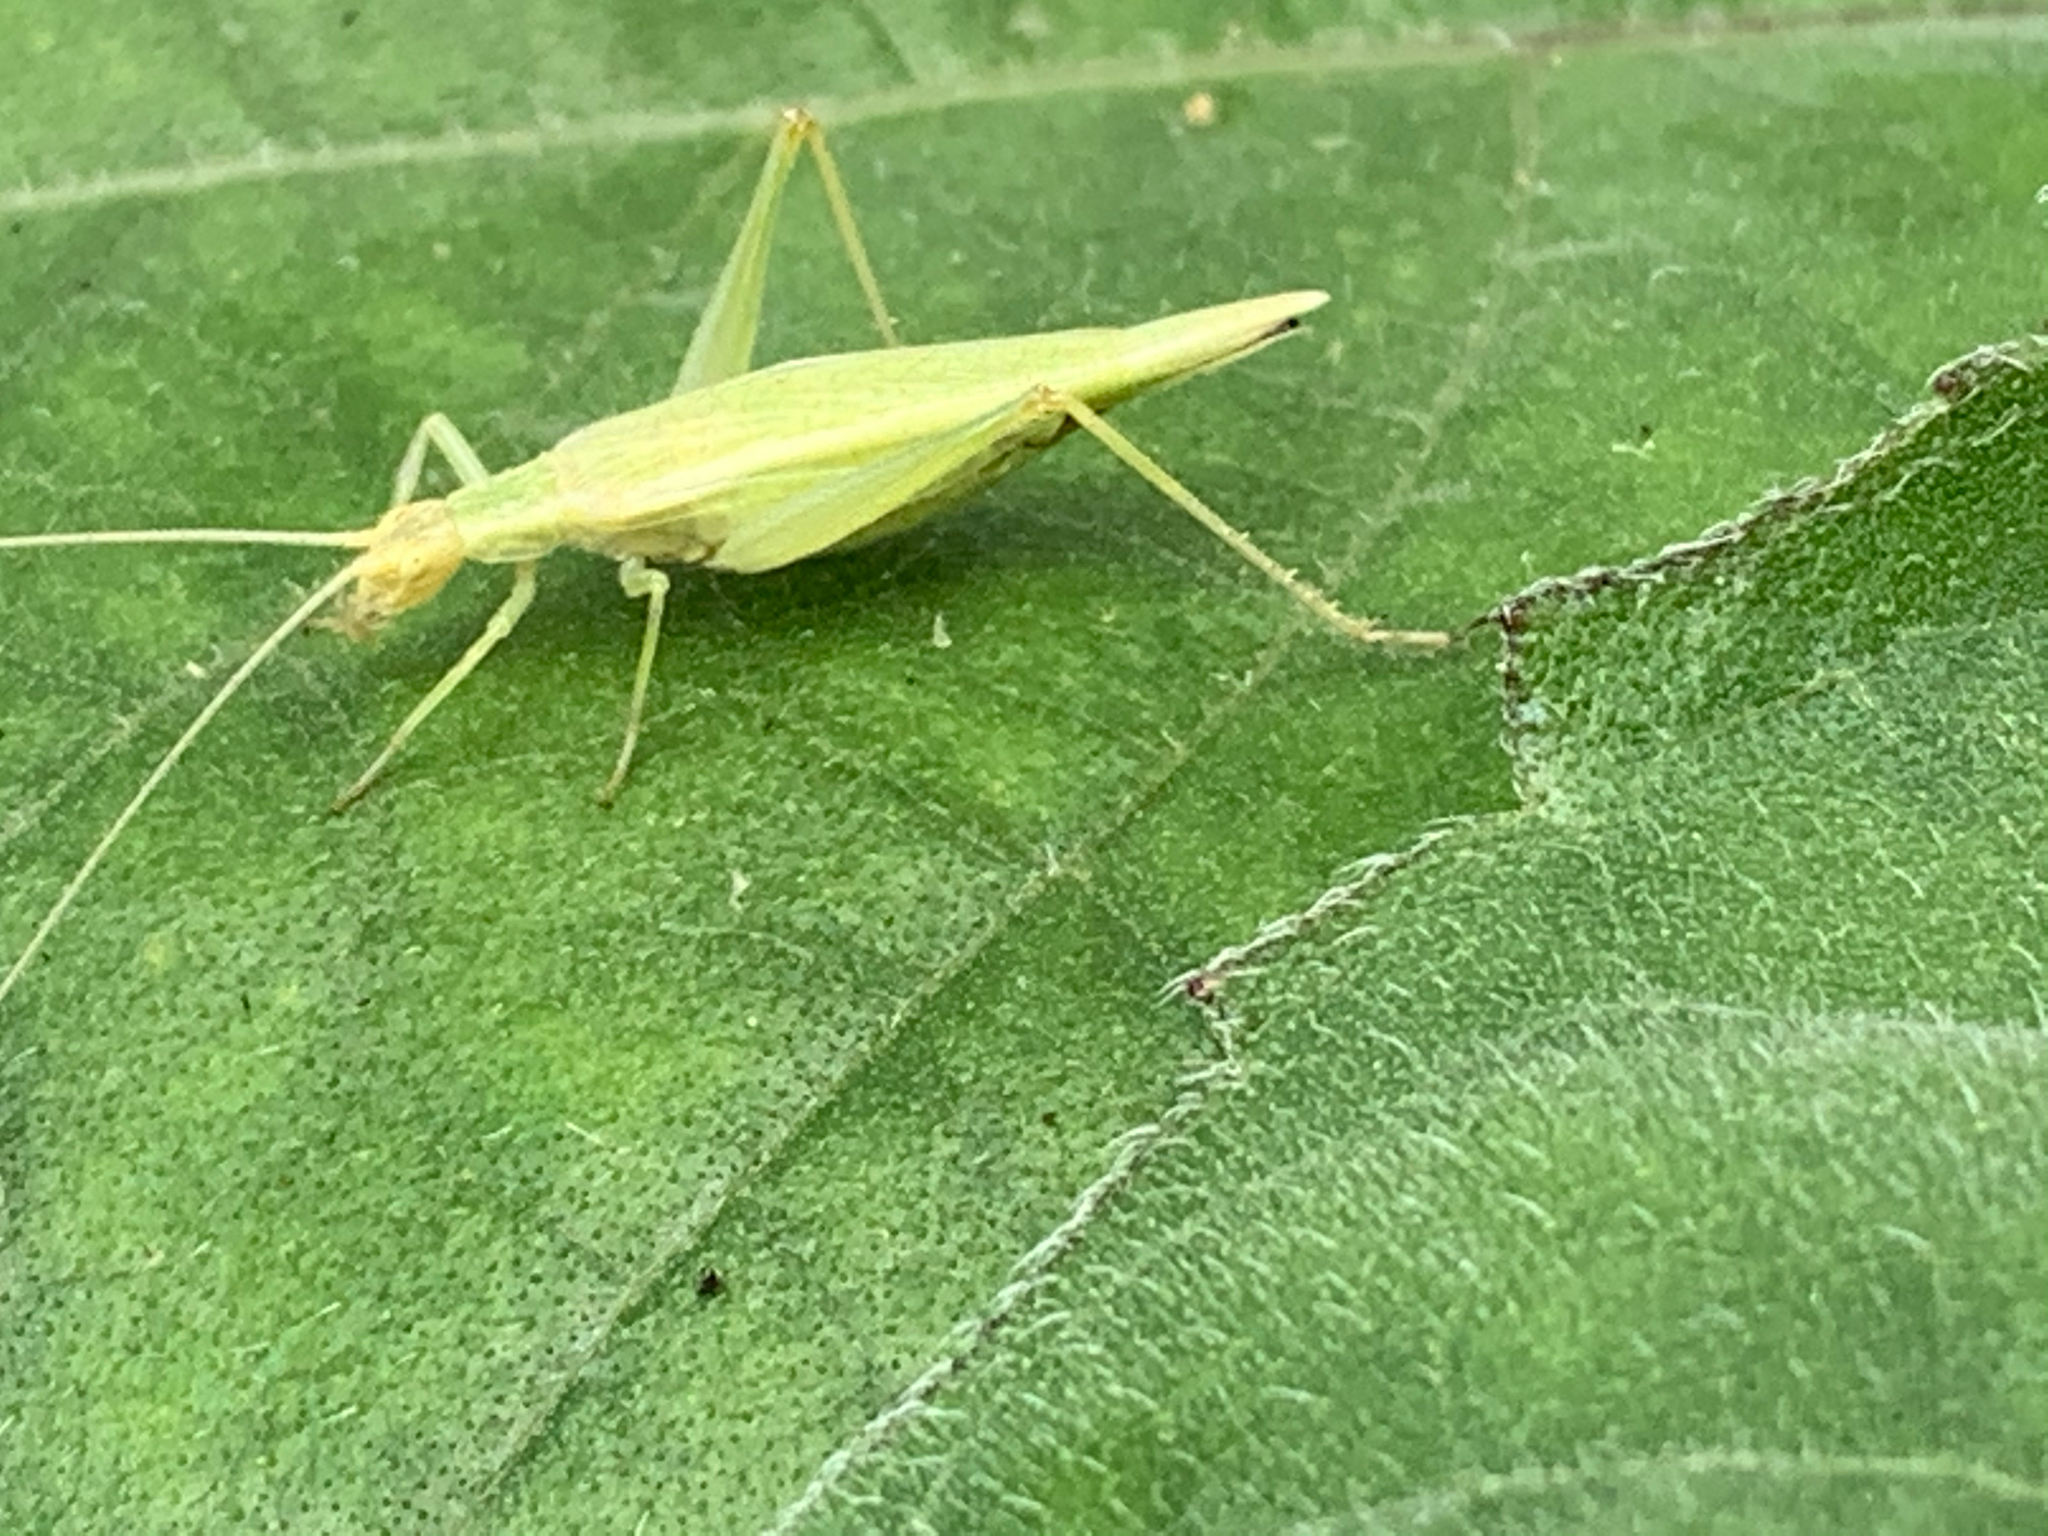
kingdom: Animalia
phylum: Arthropoda
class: Insecta
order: Orthoptera
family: Gryllidae
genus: Oecanthus
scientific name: Oecanthus
